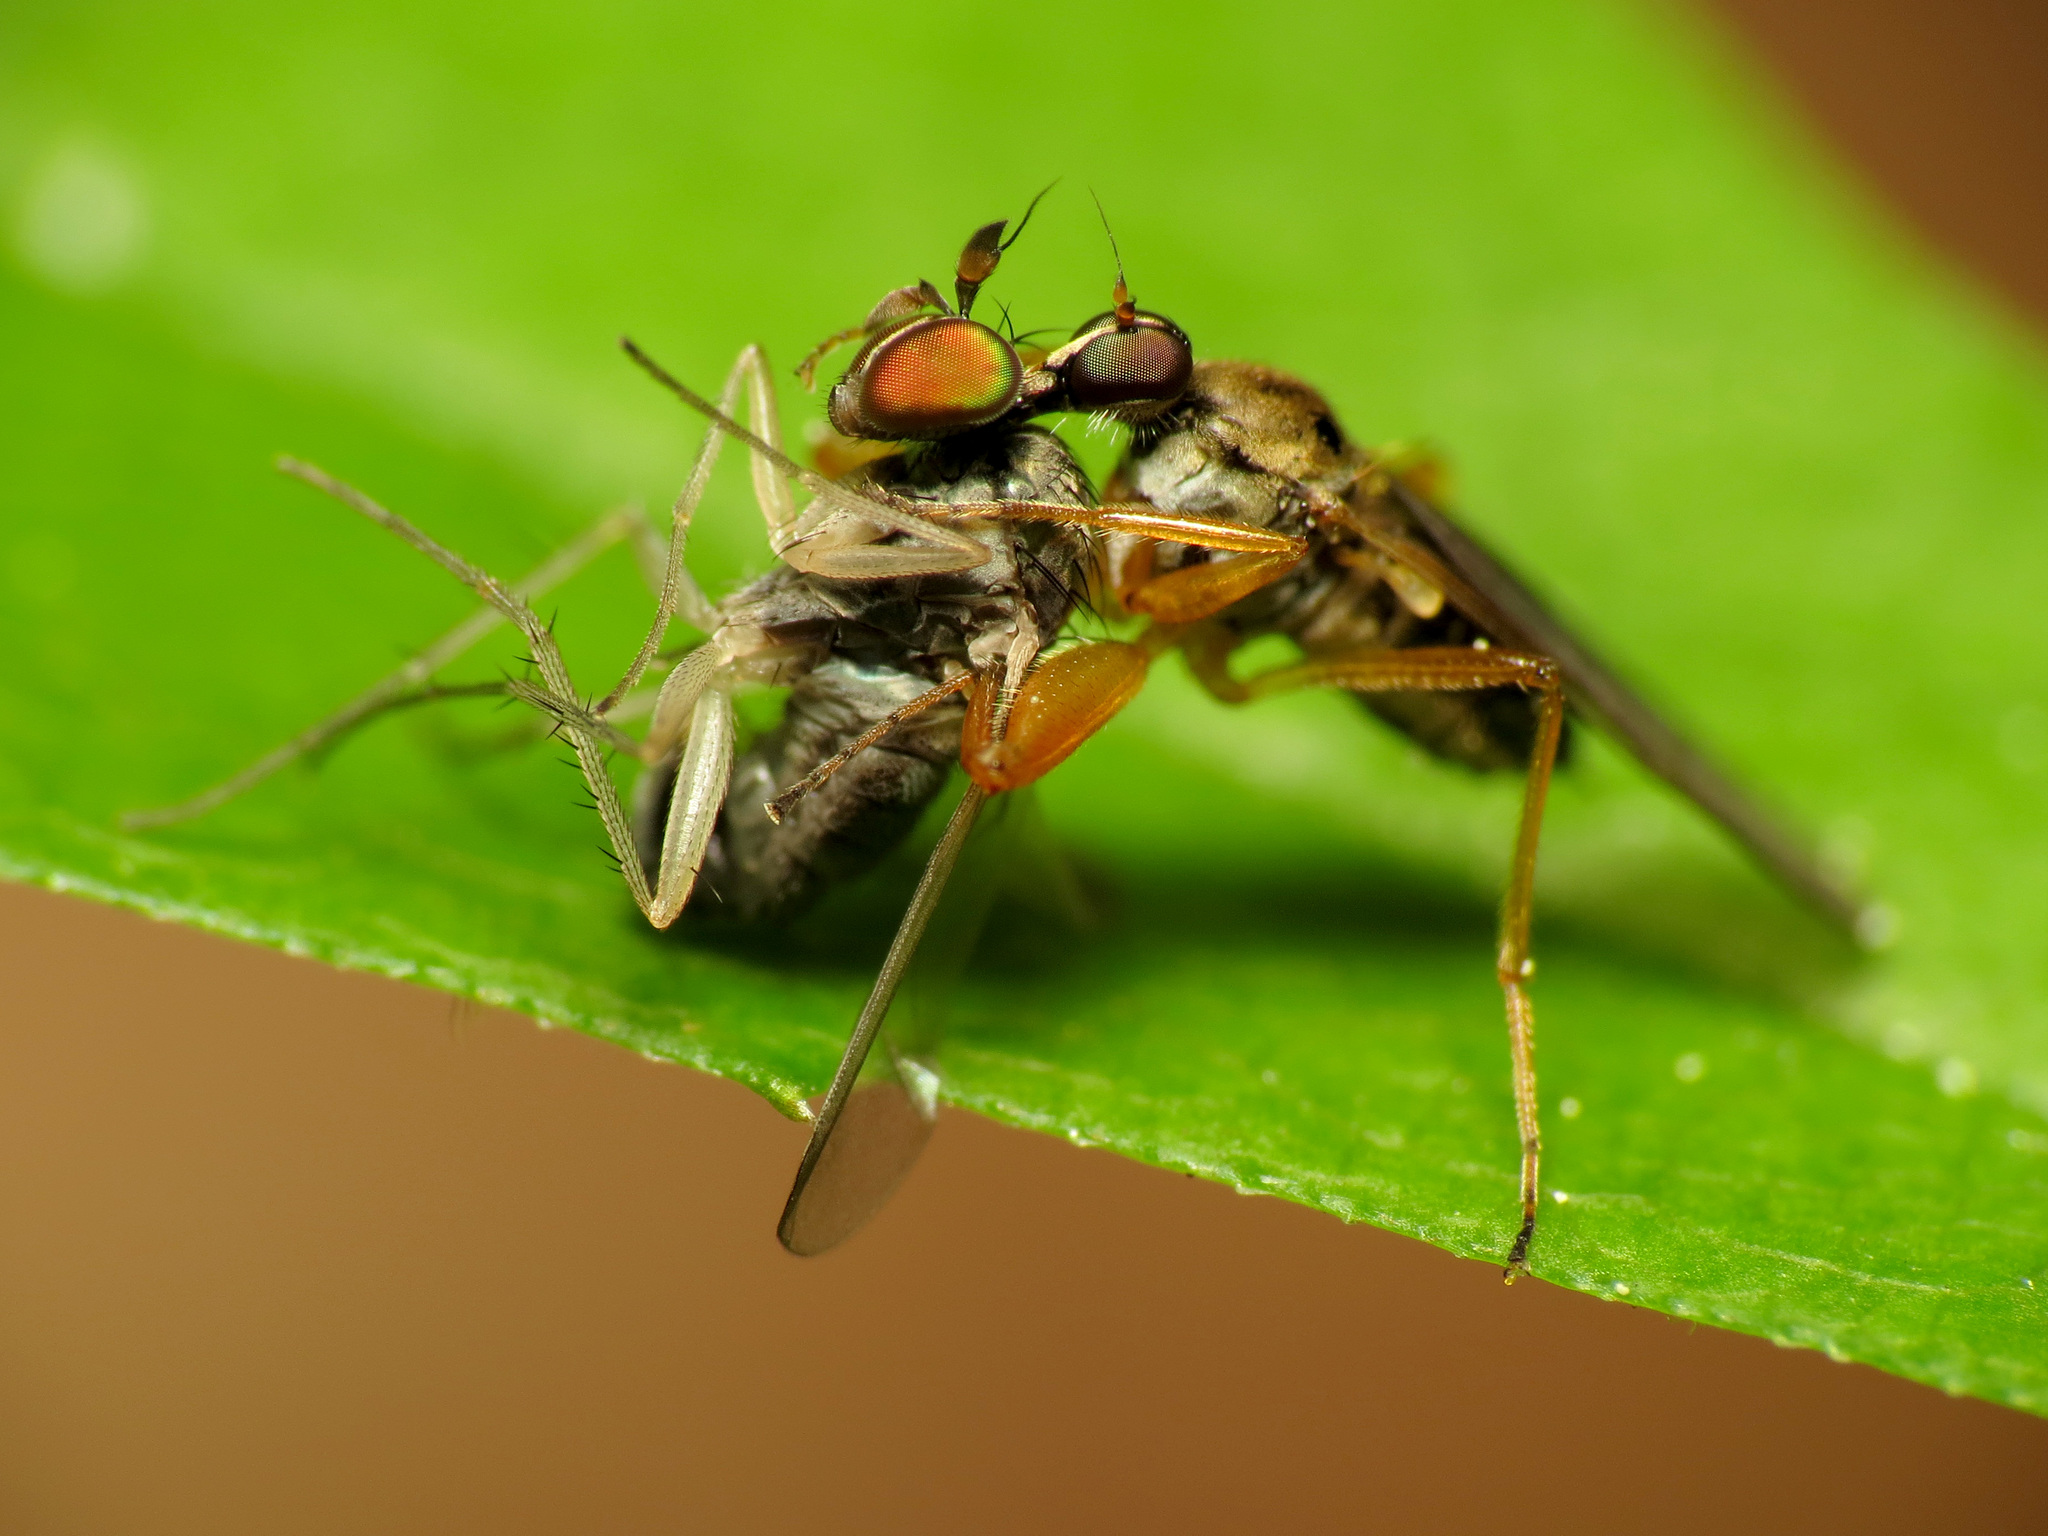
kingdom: Animalia
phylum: Arthropoda
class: Insecta
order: Diptera
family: Hybotidae
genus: Platypalpus
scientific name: Platypalpus discifer
